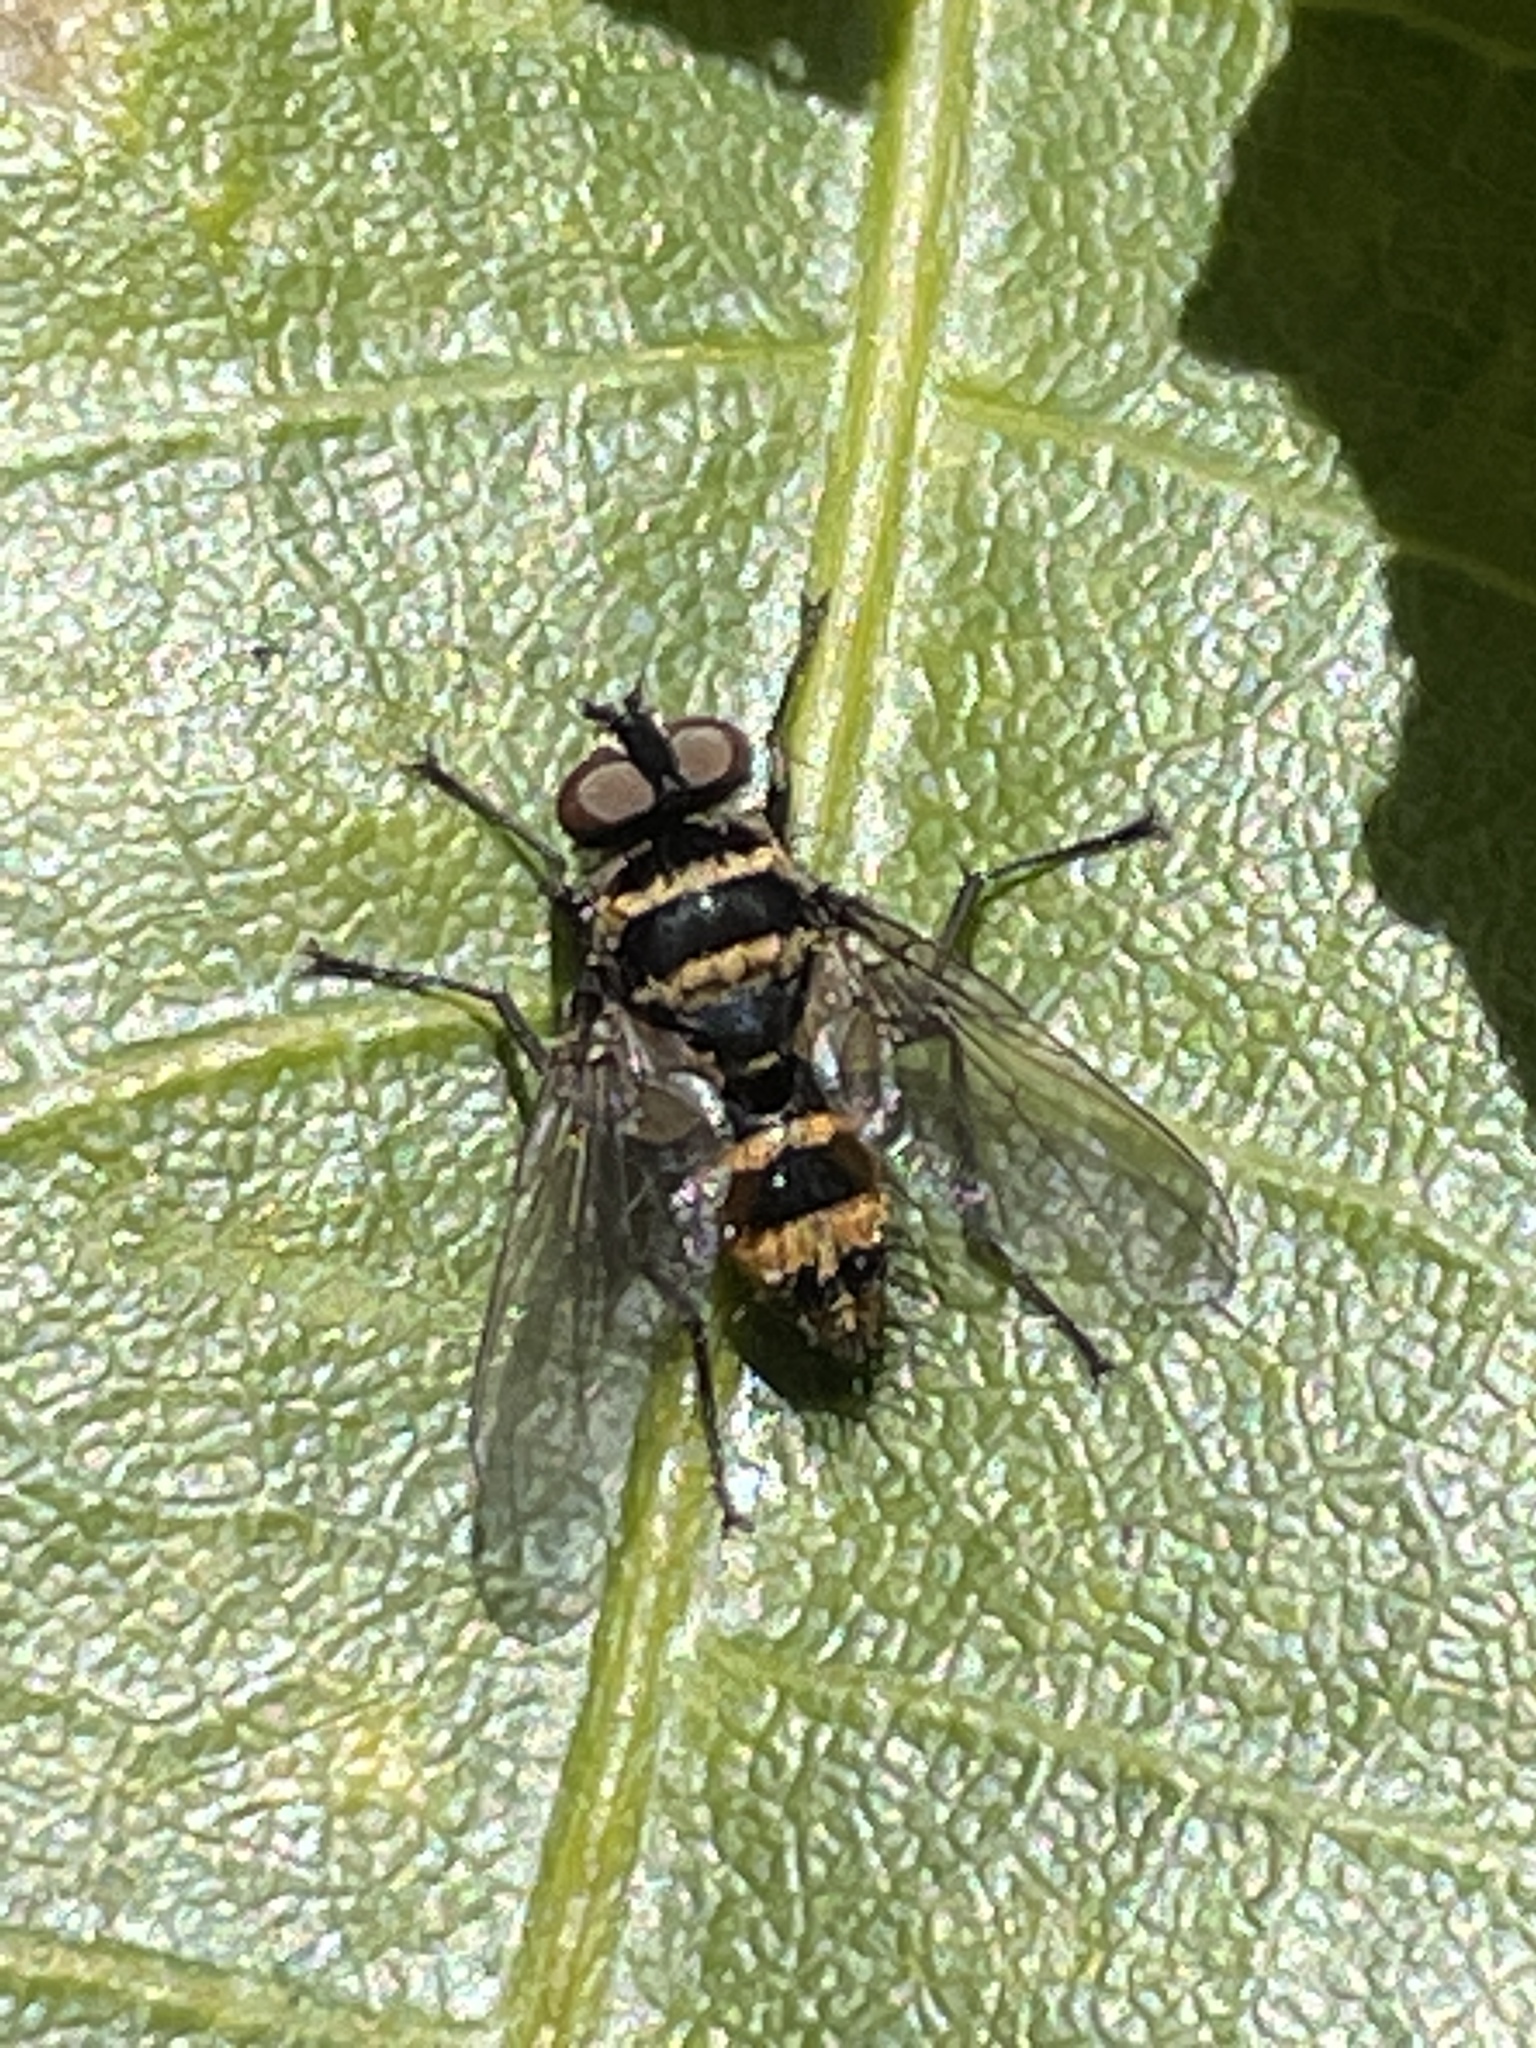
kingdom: Animalia
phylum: Arthropoda
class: Insecta
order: Diptera
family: Tachinidae
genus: Trigonospila
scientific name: Trigonospila brevifacies
